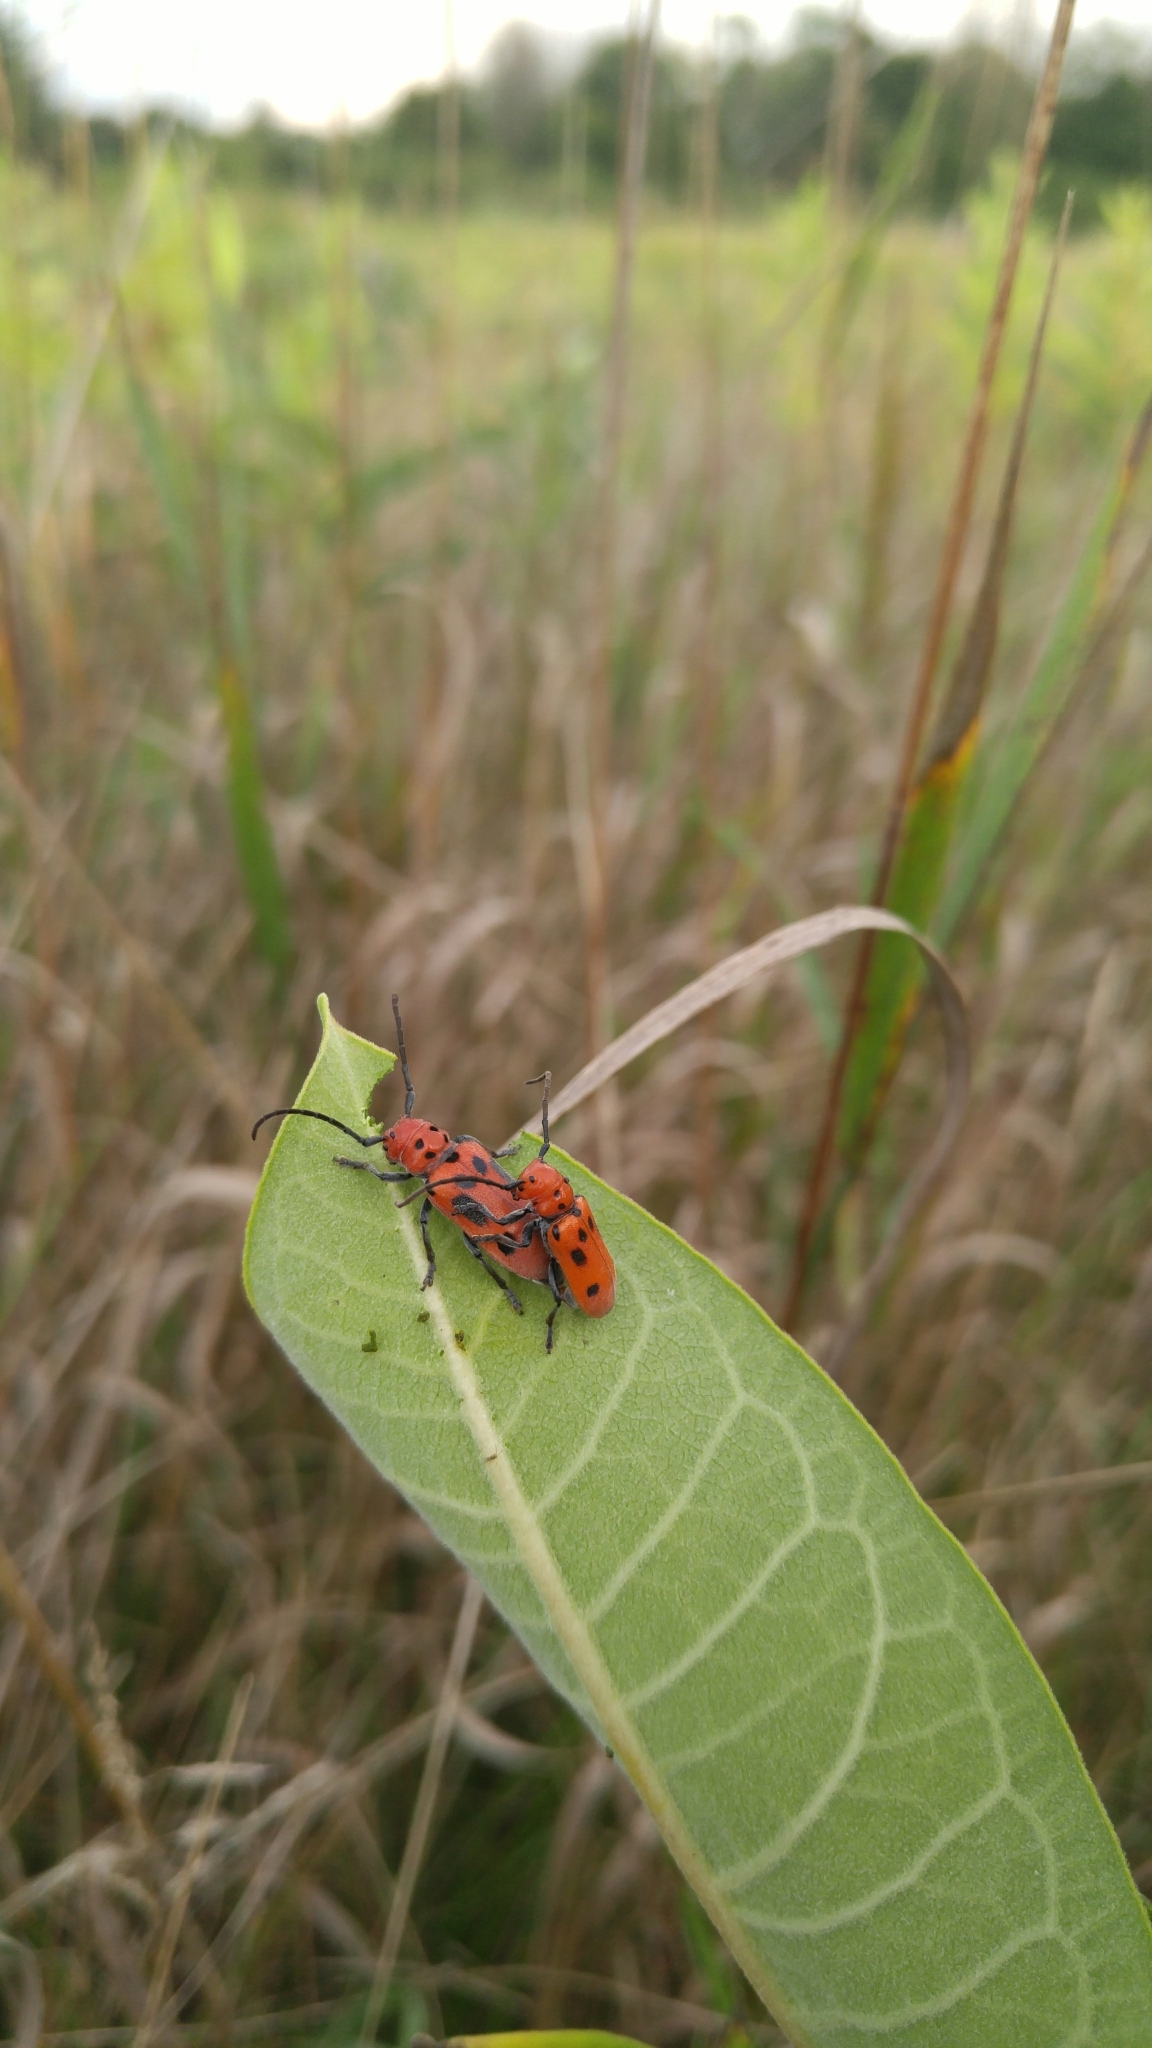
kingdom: Animalia
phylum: Arthropoda
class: Insecta
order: Coleoptera
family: Cerambycidae
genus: Tetraopes
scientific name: Tetraopes tetrophthalmus
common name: Red milkweed beetle
